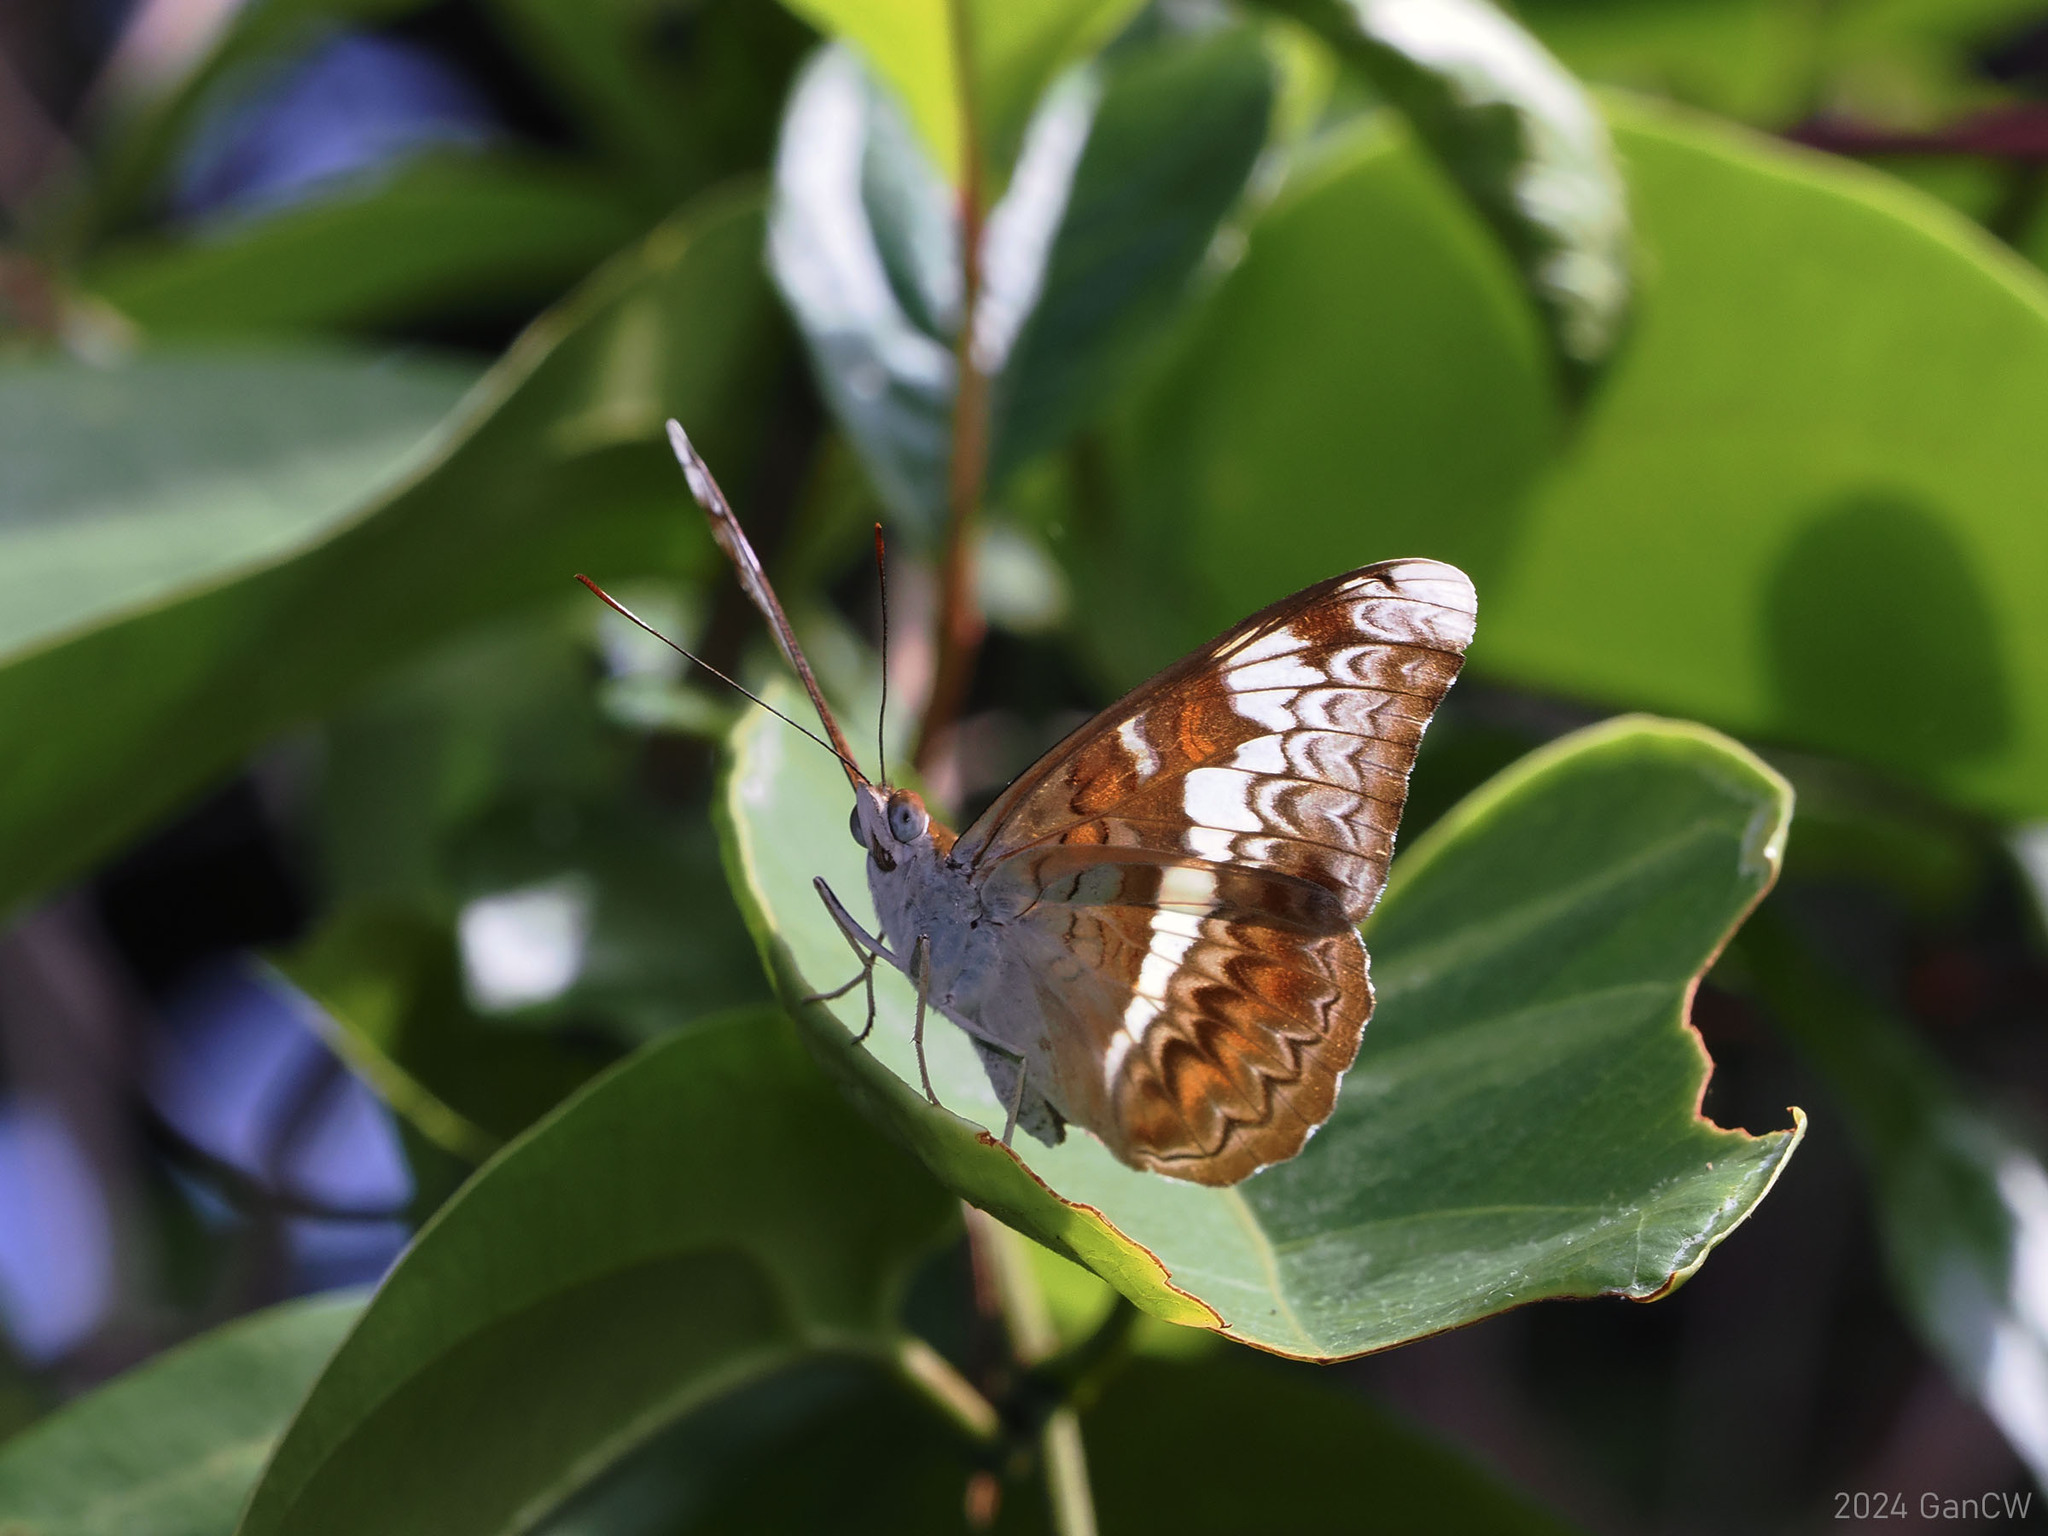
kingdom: Animalia
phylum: Arthropoda
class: Insecta
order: Lepidoptera
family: Nymphalidae
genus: Lebadea
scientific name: Lebadea martha
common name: Knight
